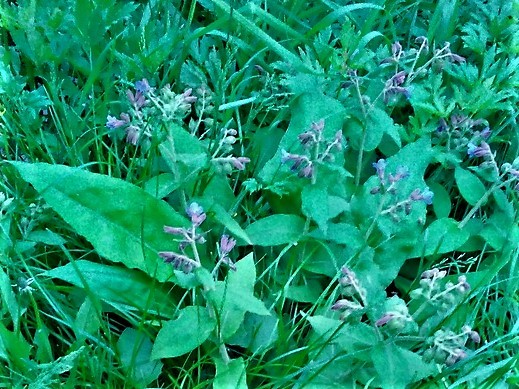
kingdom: Plantae
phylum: Tracheophyta
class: Magnoliopsida
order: Boraginales
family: Boraginaceae
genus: Pulmonaria
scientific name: Pulmonaria mollis
